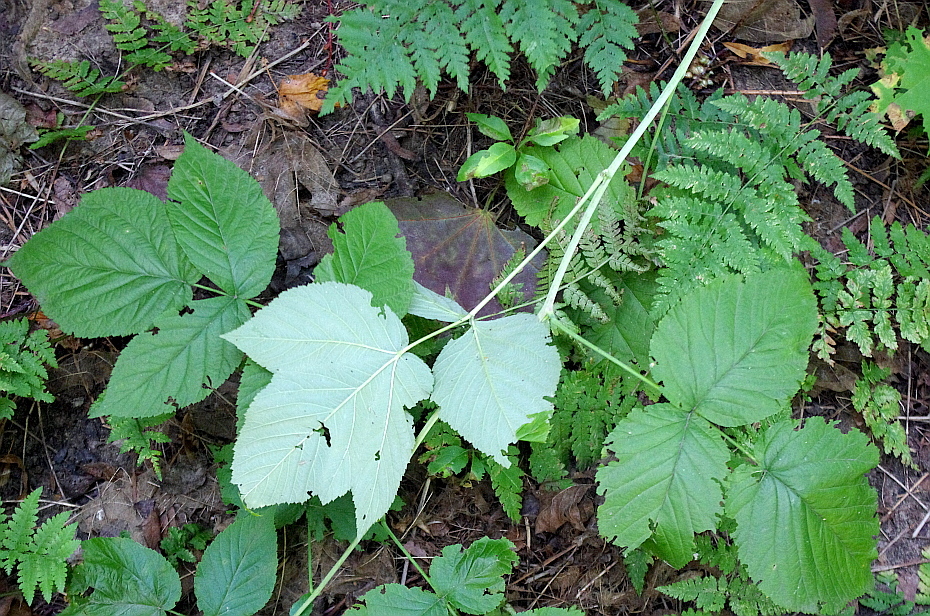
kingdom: Plantae
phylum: Tracheophyta
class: Magnoliopsida
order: Rosales
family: Rosaceae
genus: Rubus
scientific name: Rubus idaeus
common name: Raspberry
